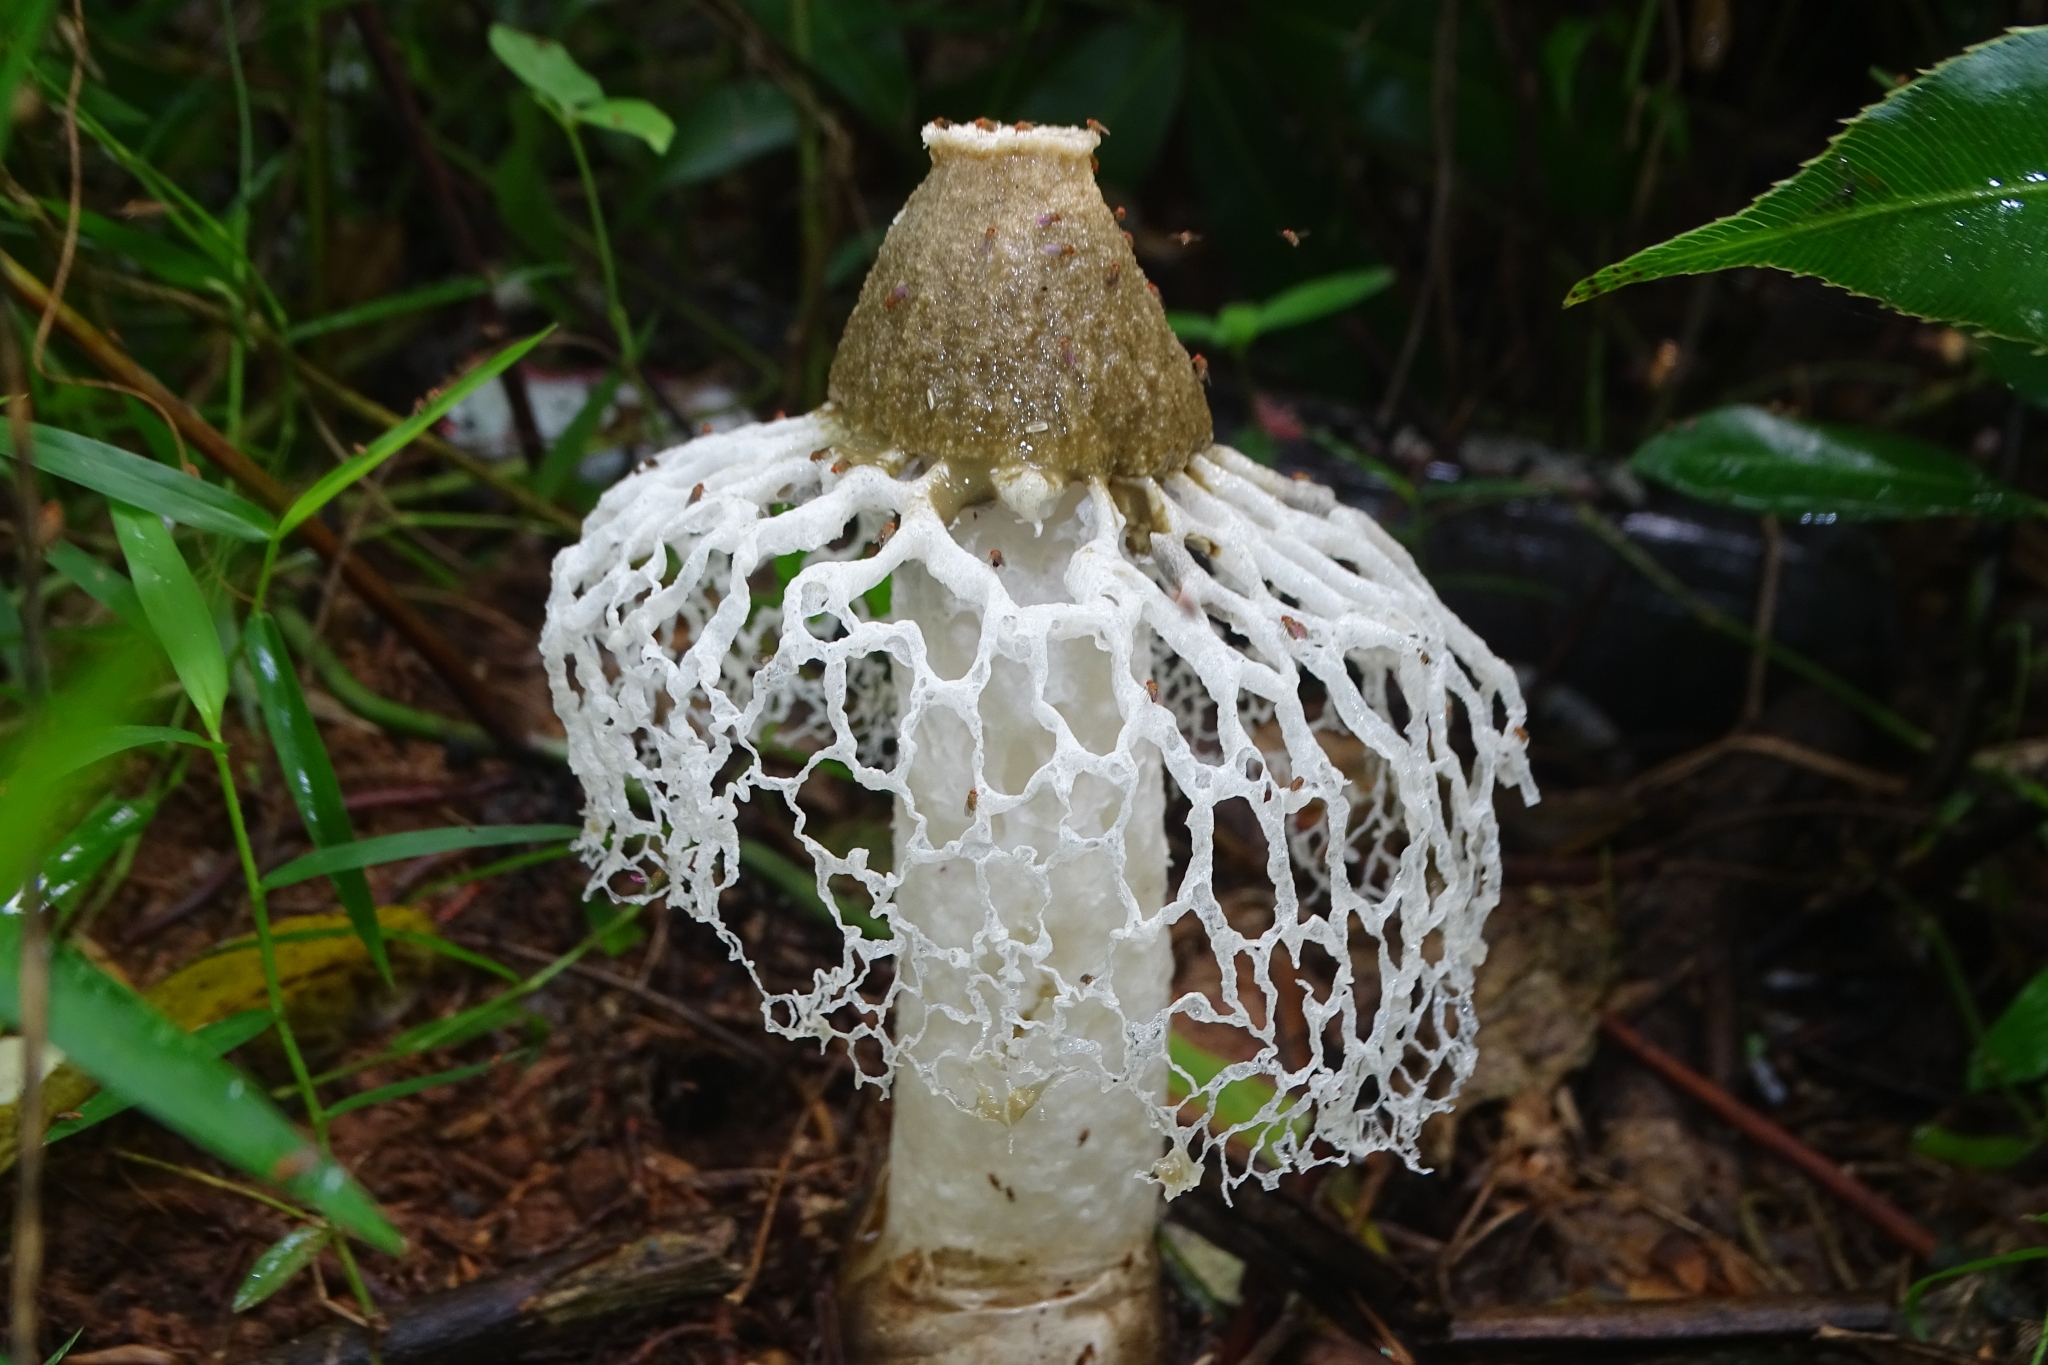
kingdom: Fungi
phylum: Basidiomycota
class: Agaricomycetes
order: Phallales
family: Phallaceae
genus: Phallus
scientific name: Phallus merulinus
